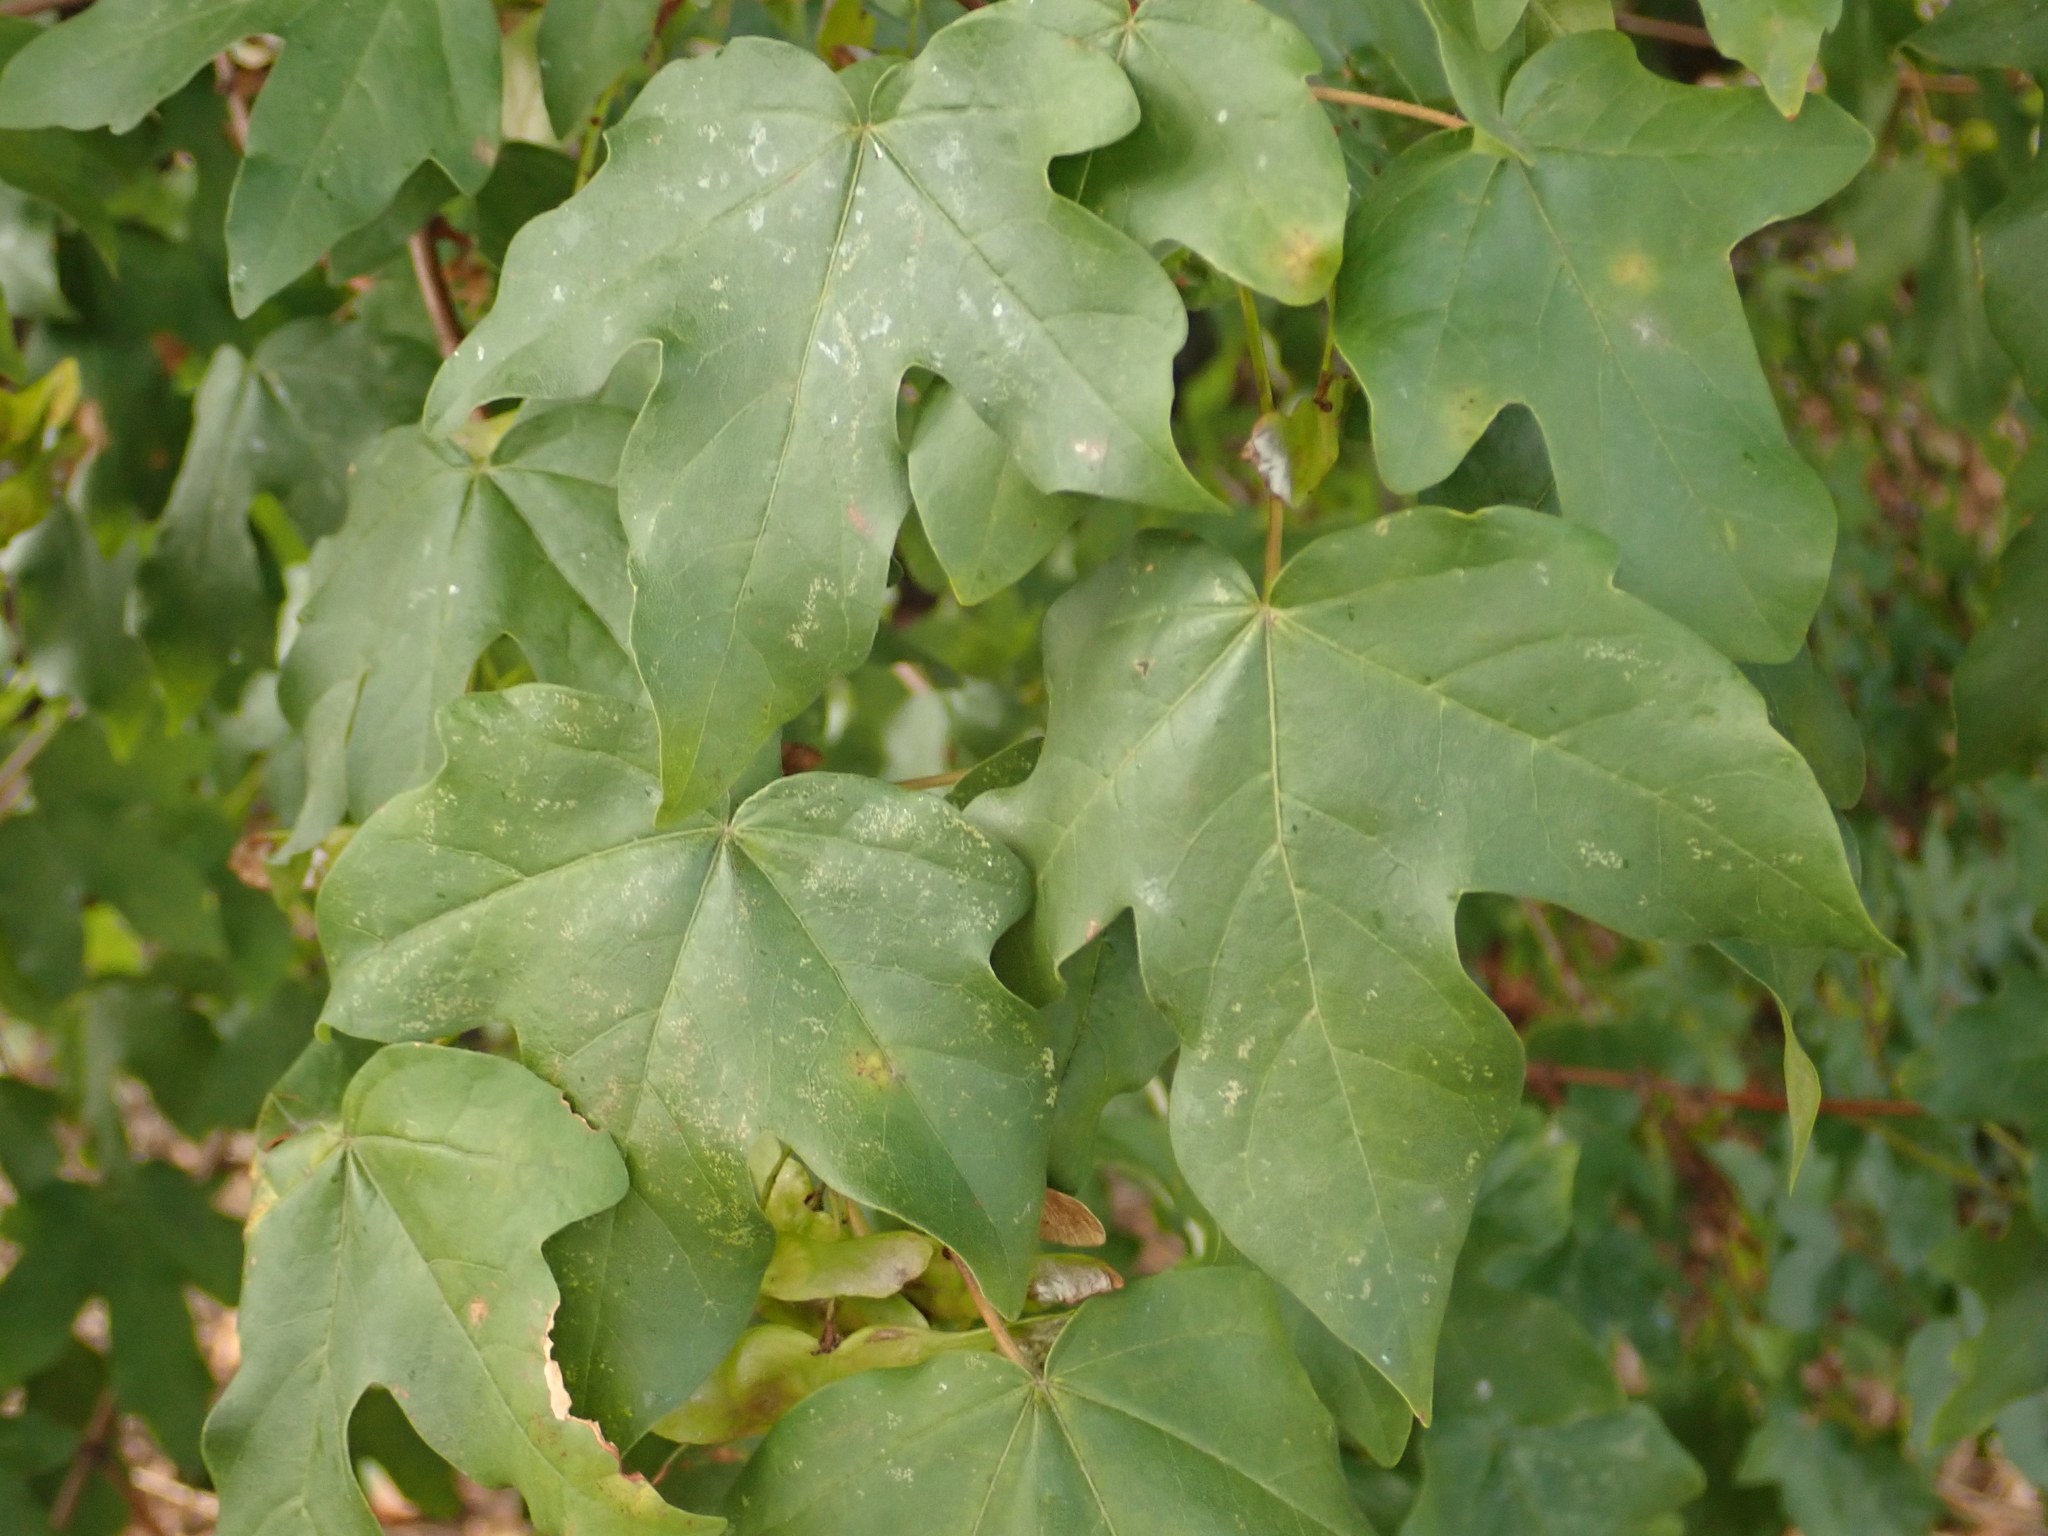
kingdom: Plantae
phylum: Tracheophyta
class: Magnoliopsida
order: Sapindales
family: Sapindaceae
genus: Acer
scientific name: Acer campestre
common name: Field maple
